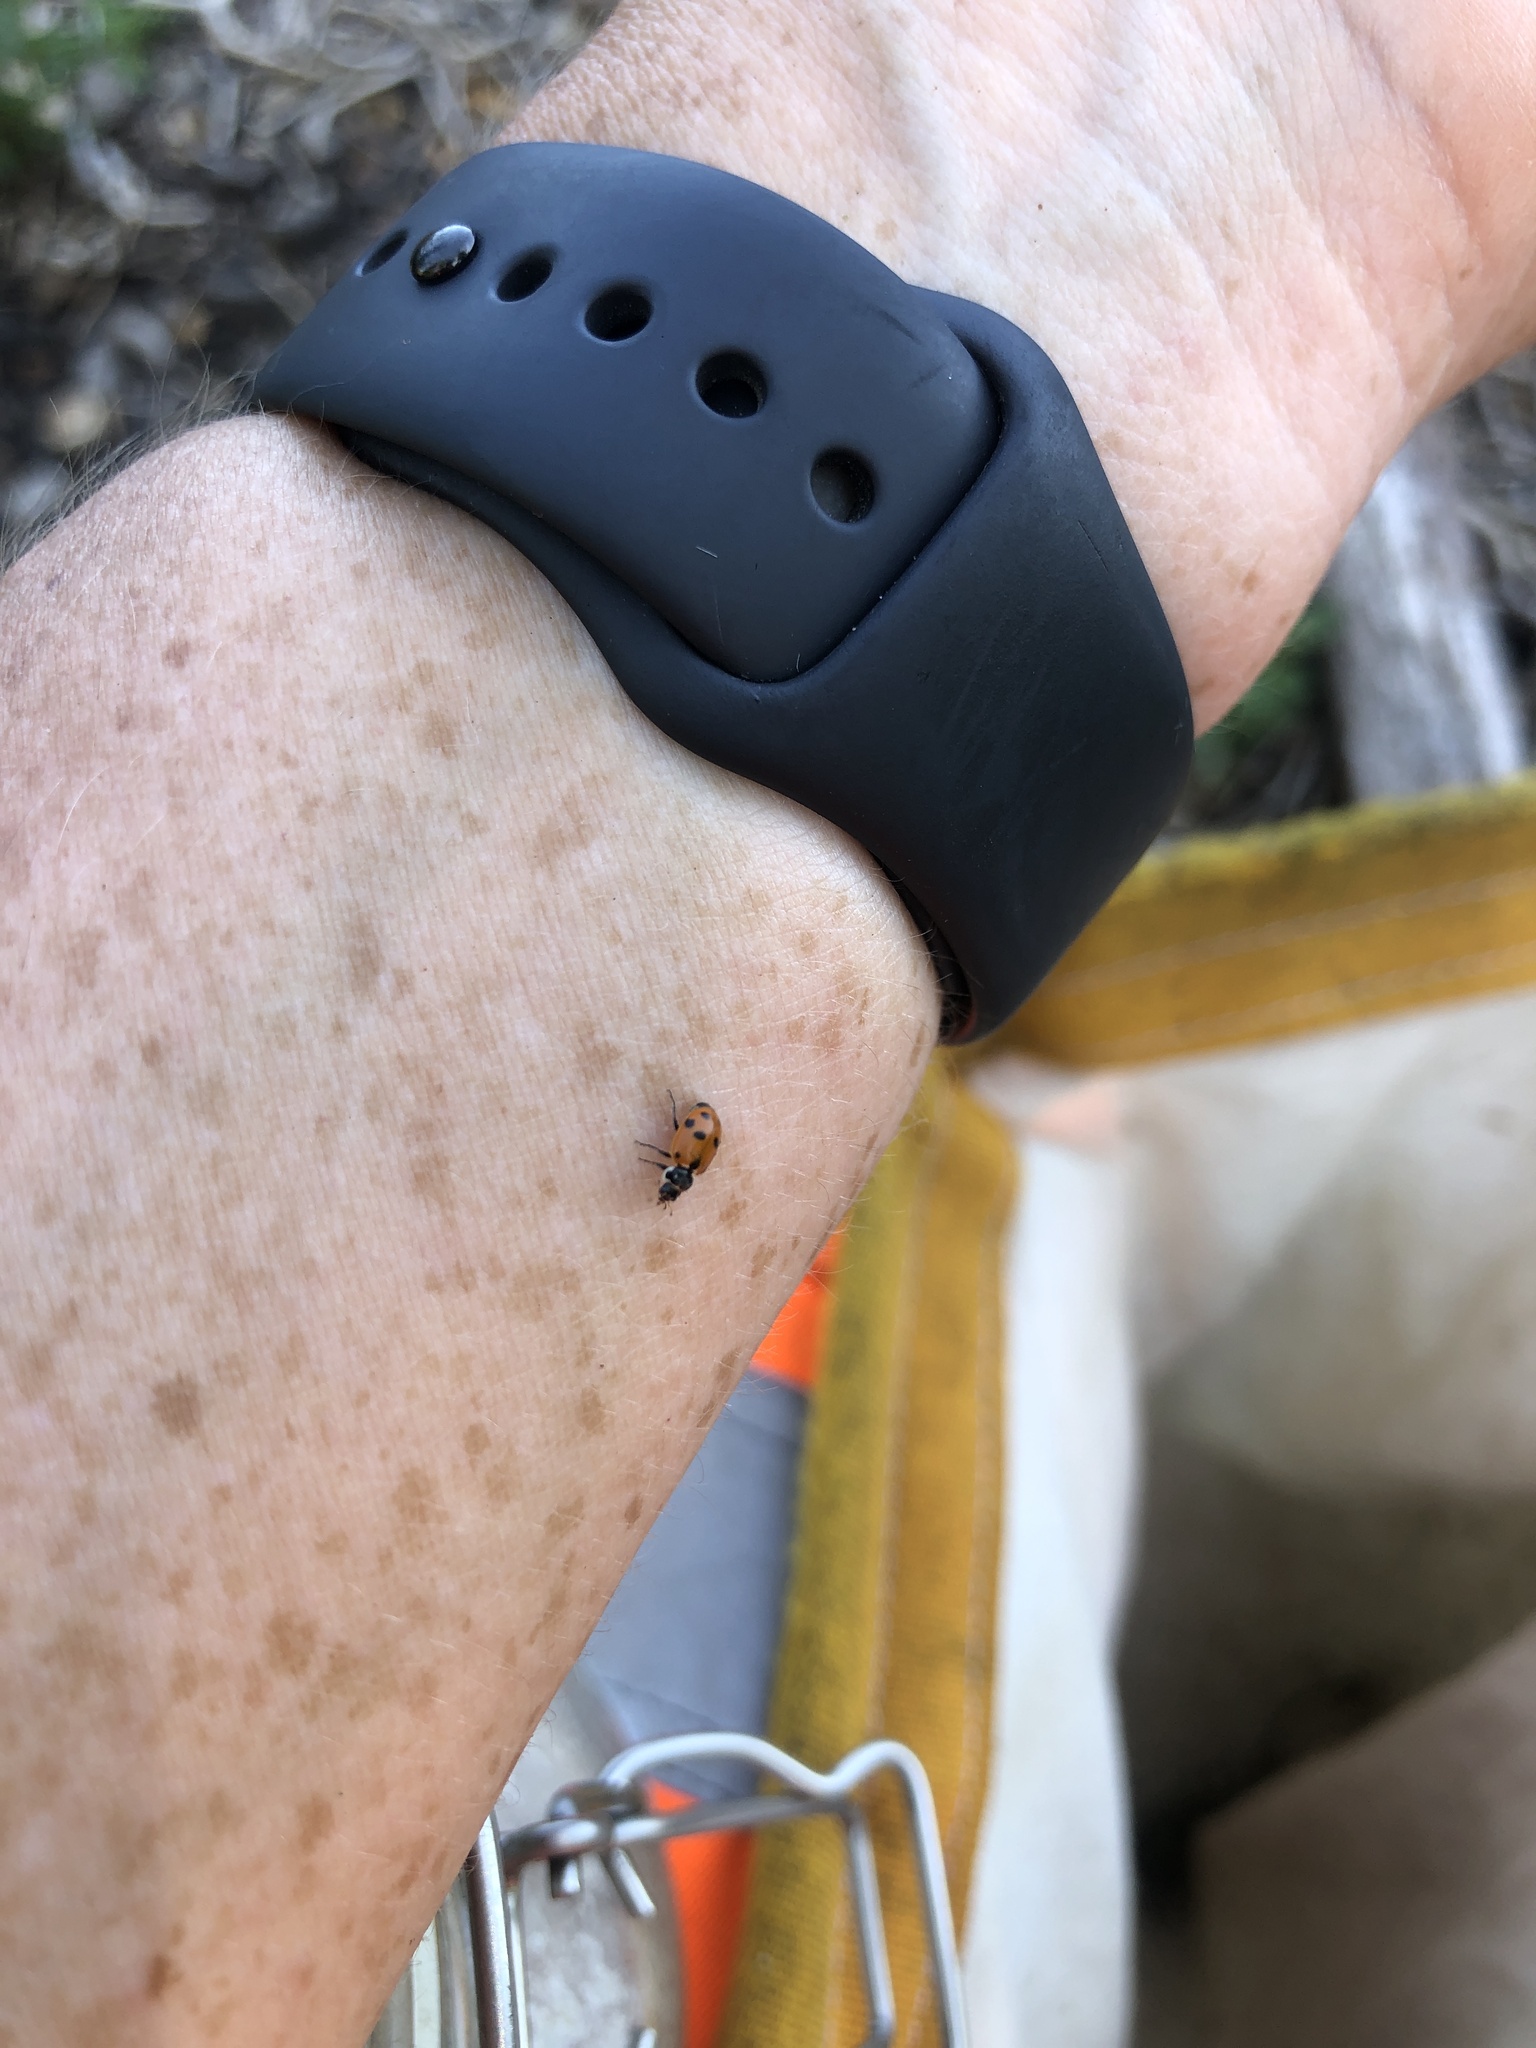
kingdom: Animalia
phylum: Arthropoda
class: Insecta
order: Coleoptera
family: Coccinellidae
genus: Hippodamia
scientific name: Hippodamia variegata
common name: Ladybird beetle
